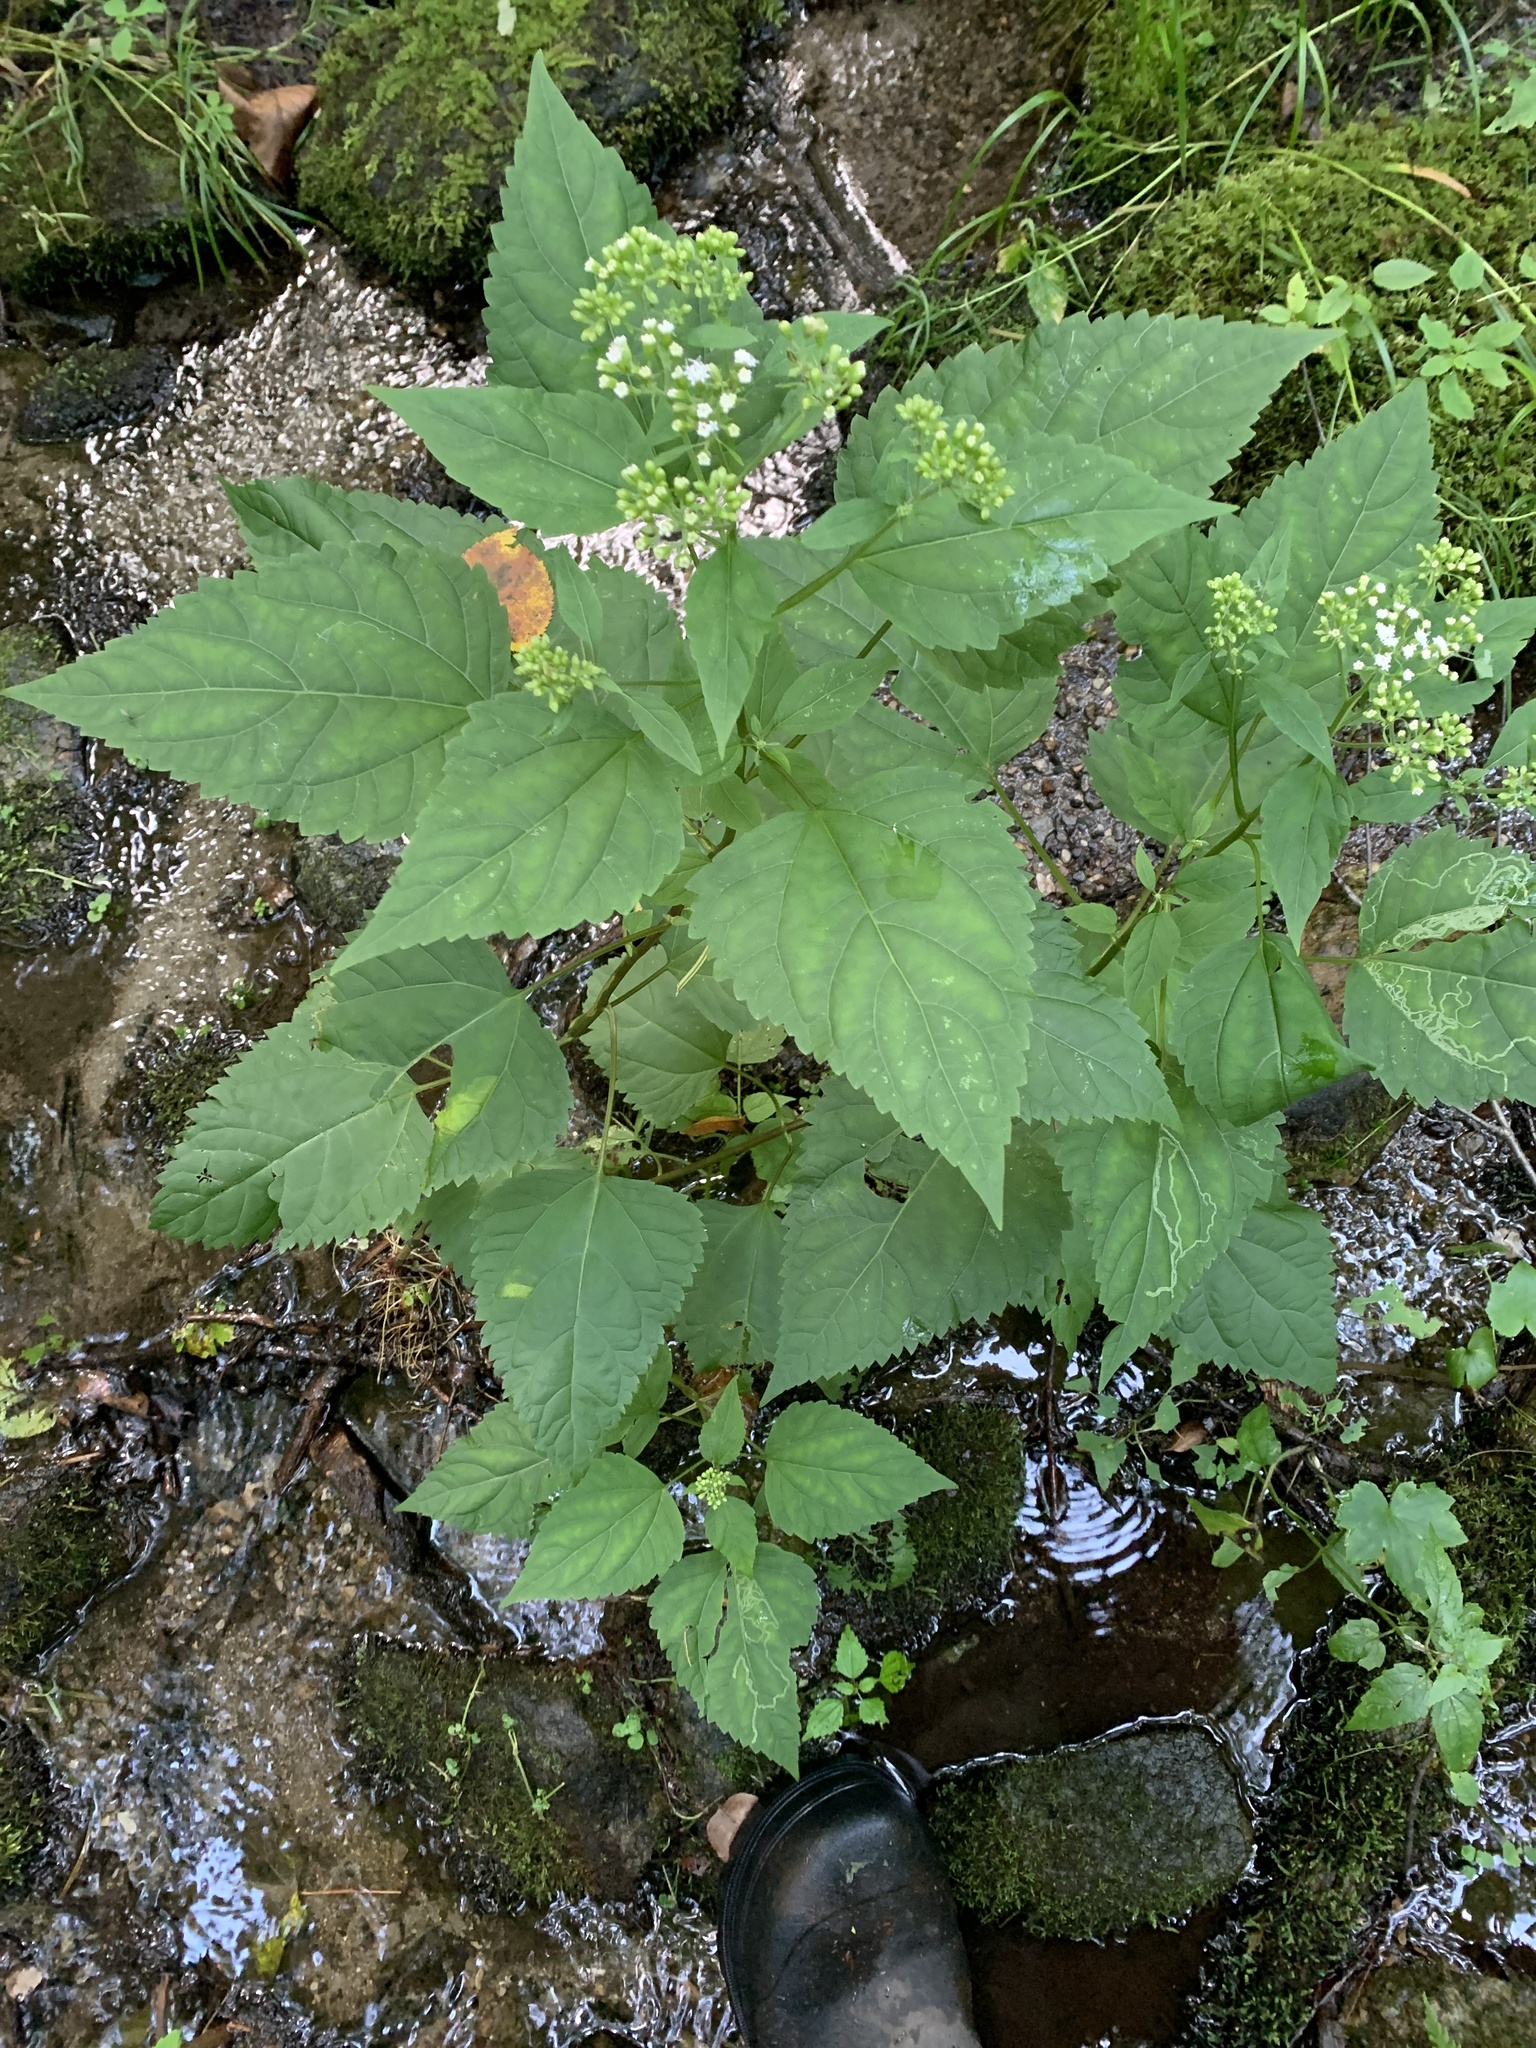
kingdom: Plantae
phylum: Tracheophyta
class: Magnoliopsida
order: Asterales
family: Asteraceae
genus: Ageratina
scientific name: Ageratina altissima
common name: White snakeroot
